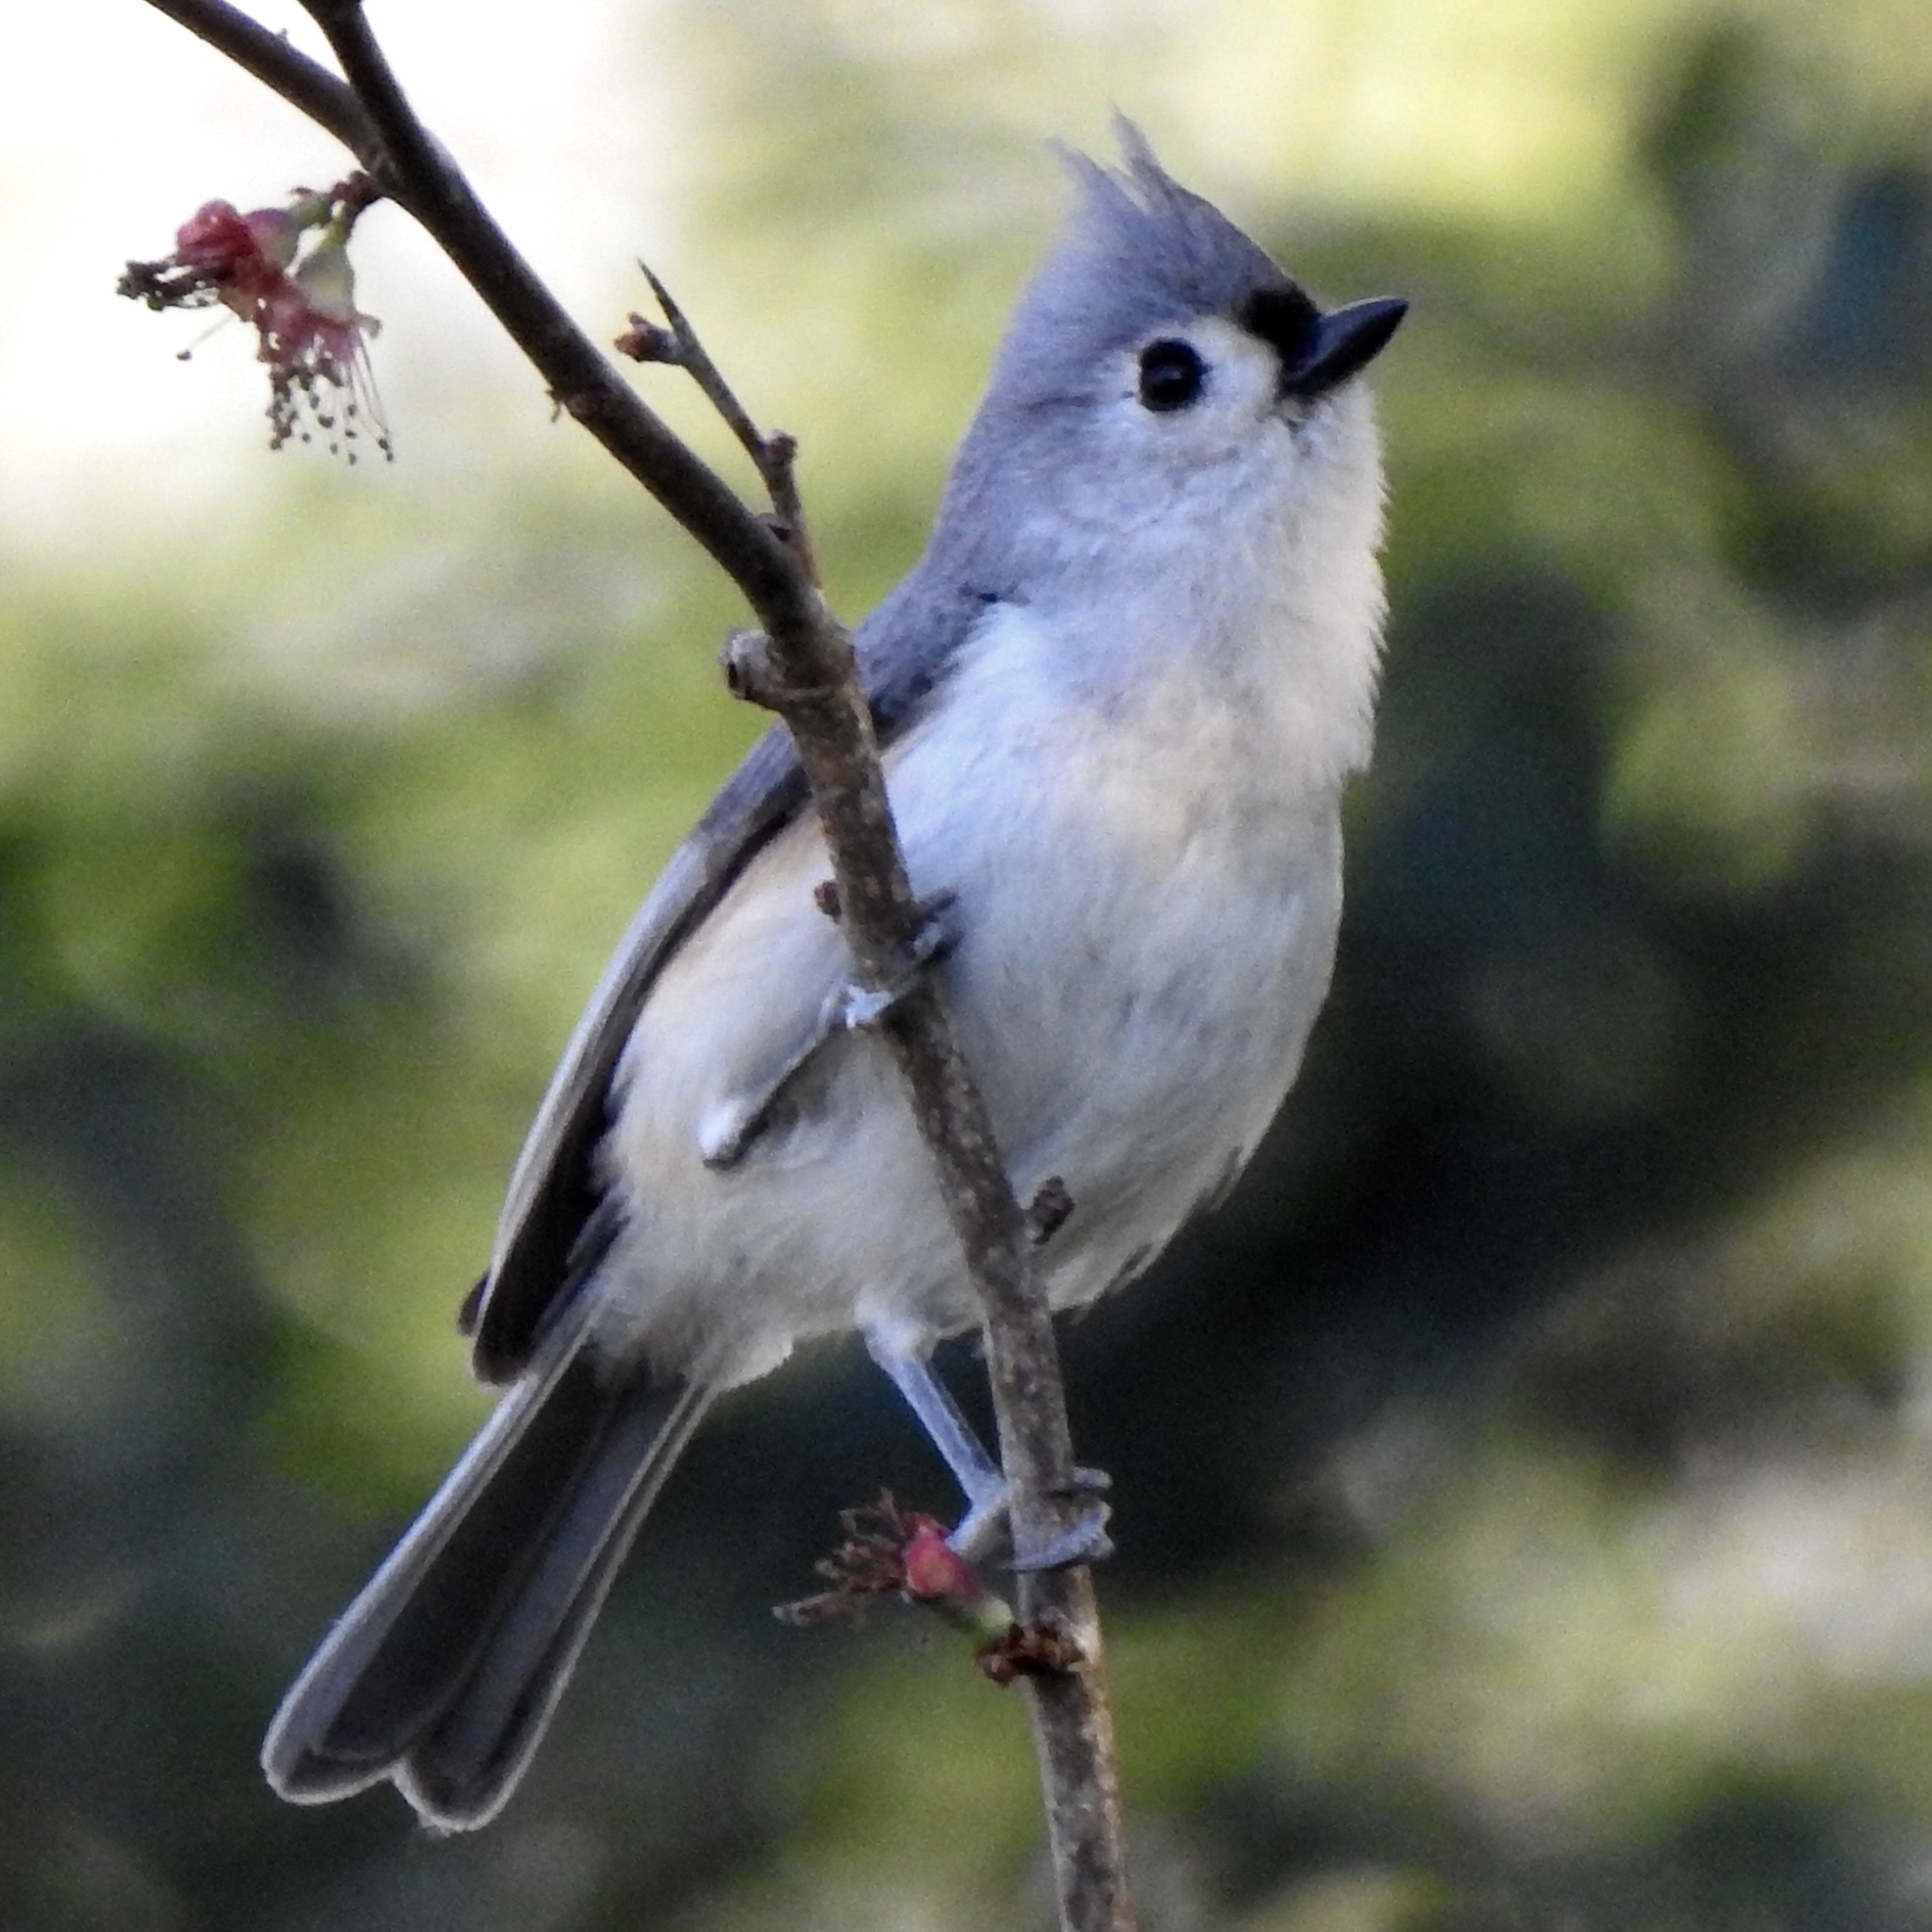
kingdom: Animalia
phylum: Chordata
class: Aves
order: Passeriformes
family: Paridae
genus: Baeolophus
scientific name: Baeolophus bicolor
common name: Tufted titmouse
